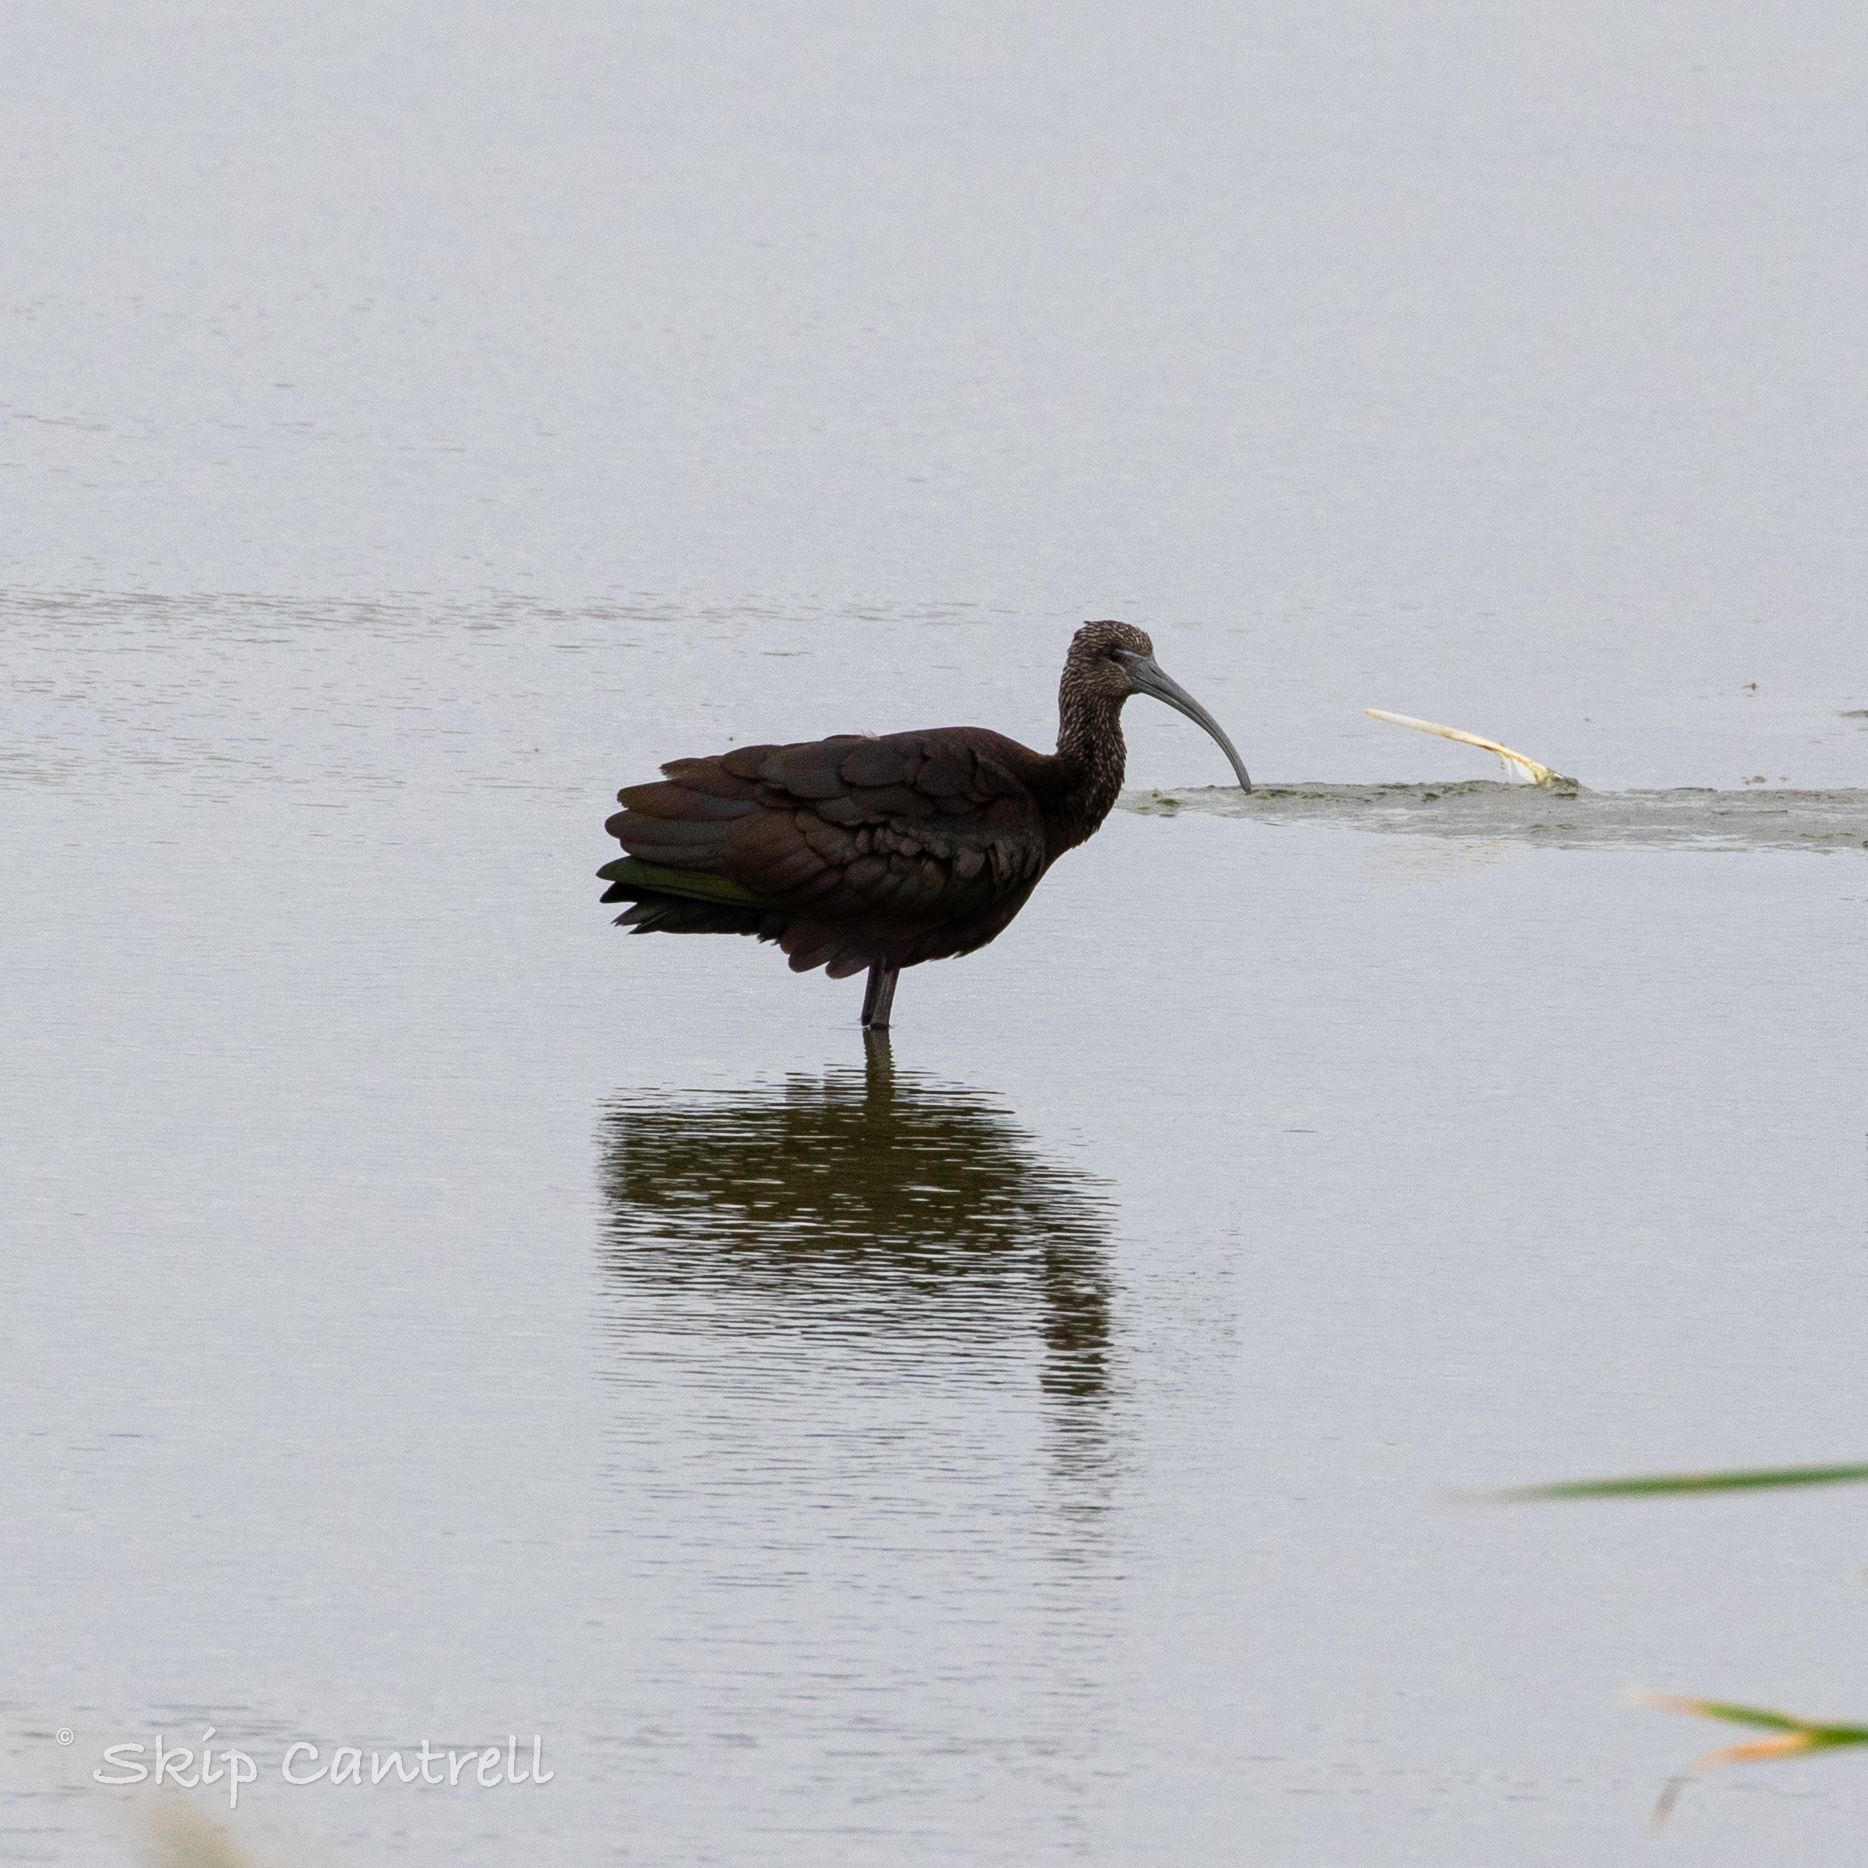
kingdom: Animalia
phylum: Chordata
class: Aves
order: Pelecaniformes
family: Threskiornithidae
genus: Plegadis
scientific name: Plegadis falcinellus
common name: Glossy ibis
